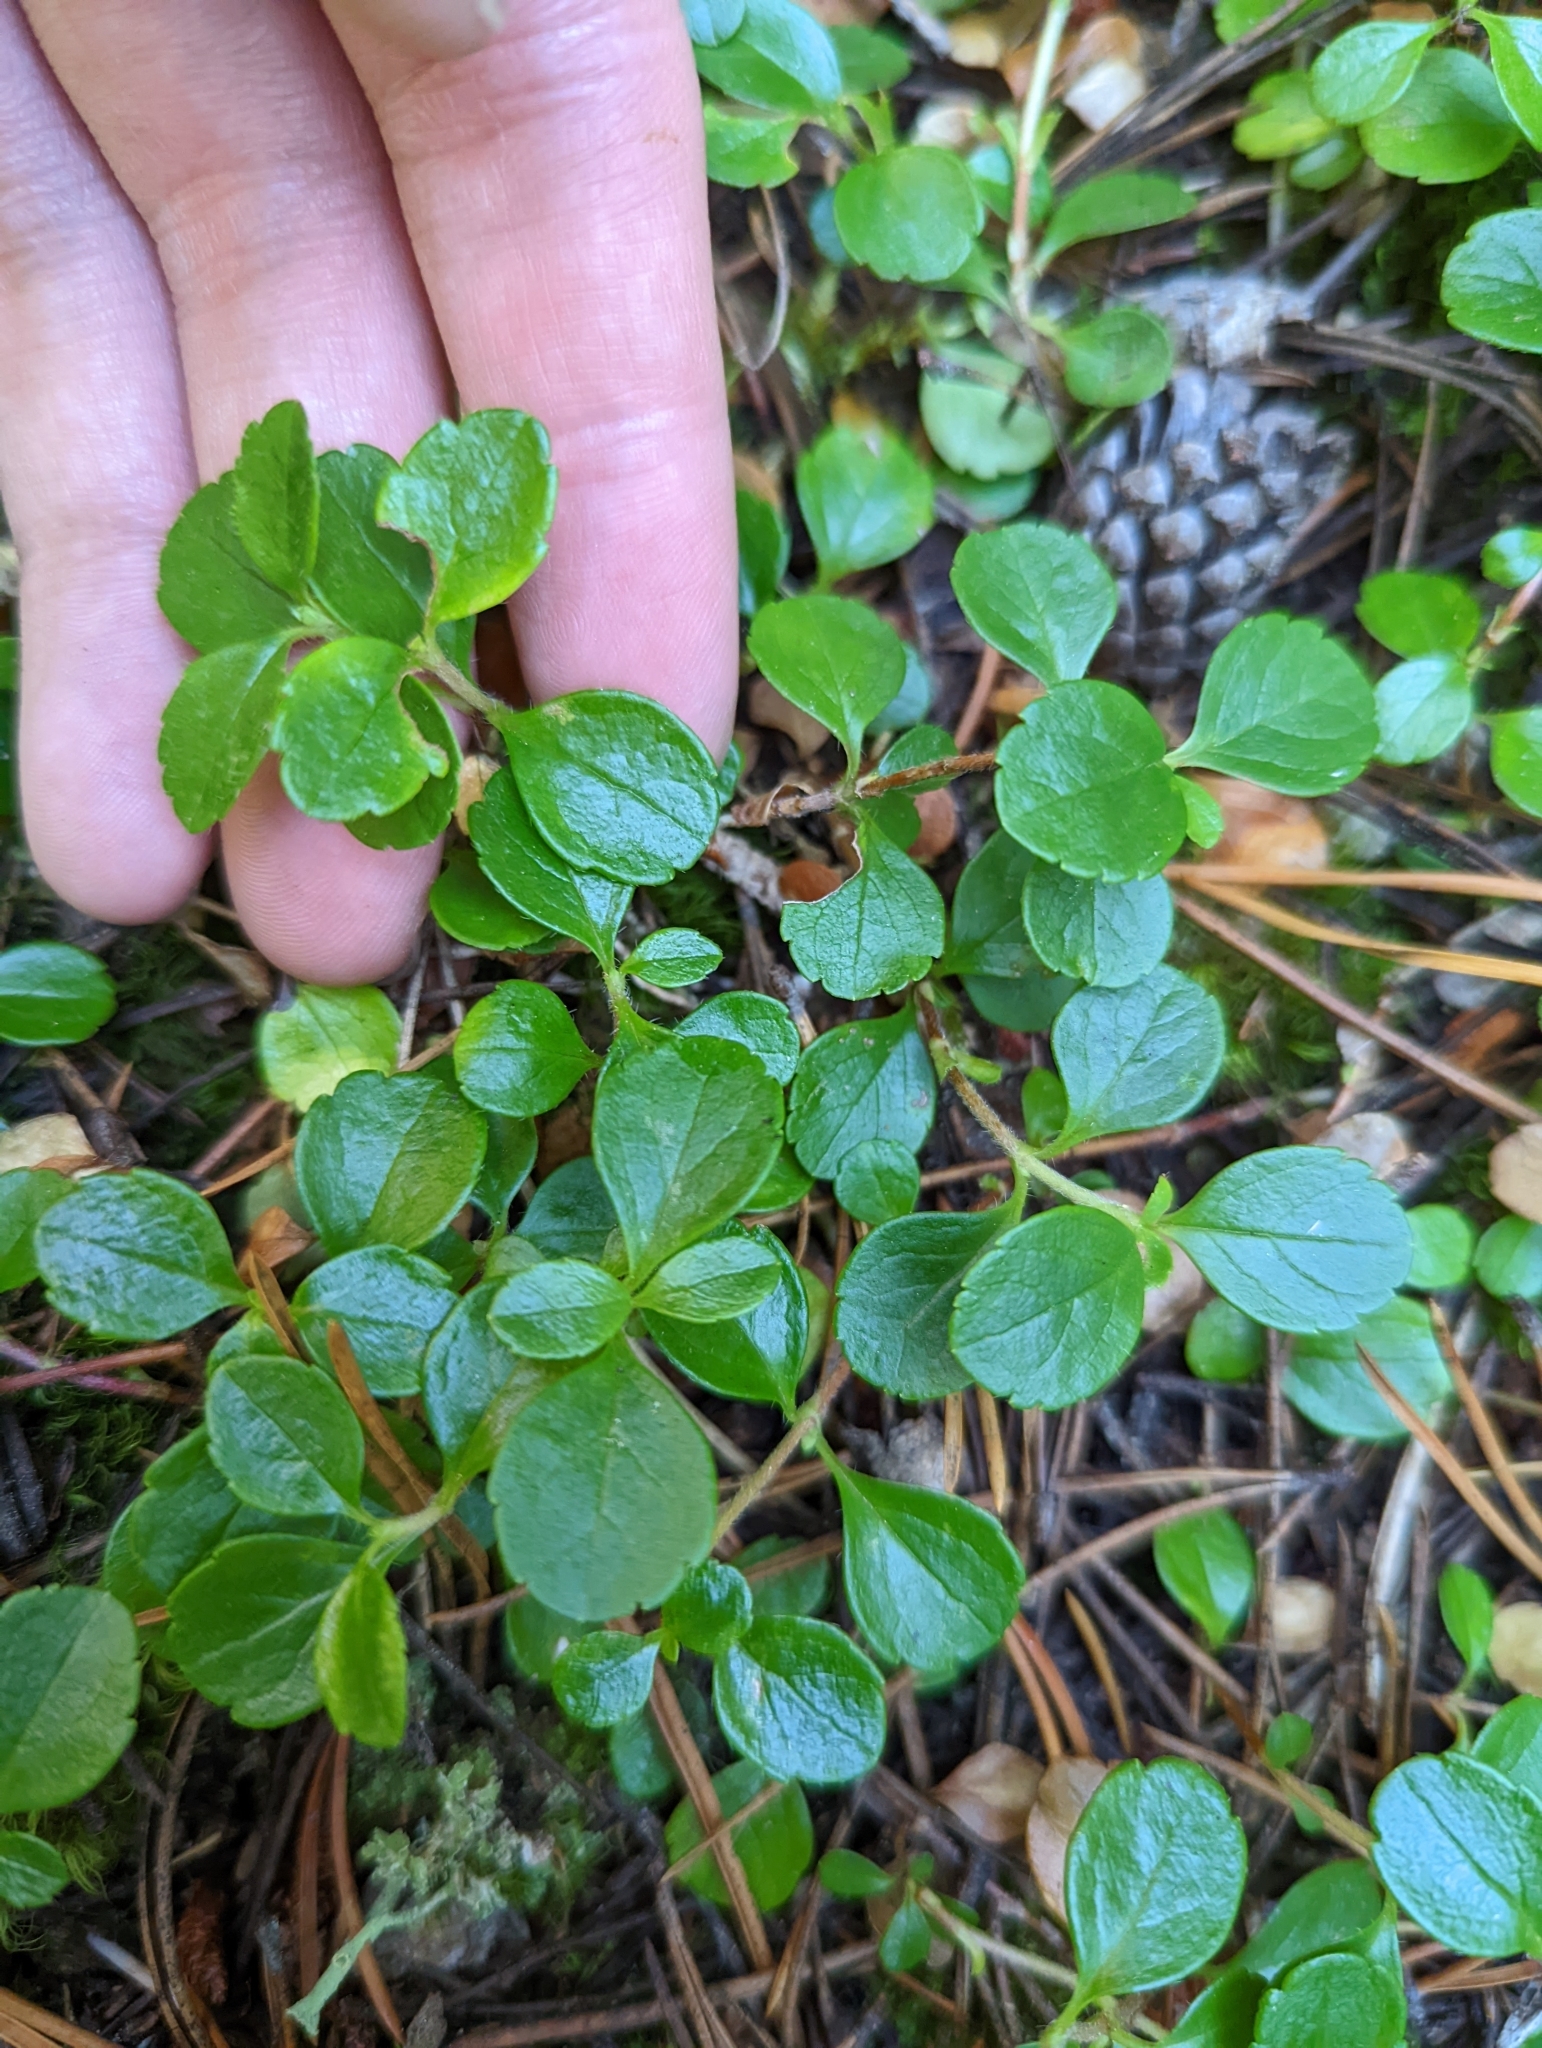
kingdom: Plantae
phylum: Tracheophyta
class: Magnoliopsida
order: Dipsacales
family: Caprifoliaceae
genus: Linnaea
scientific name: Linnaea borealis
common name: Twinflower
